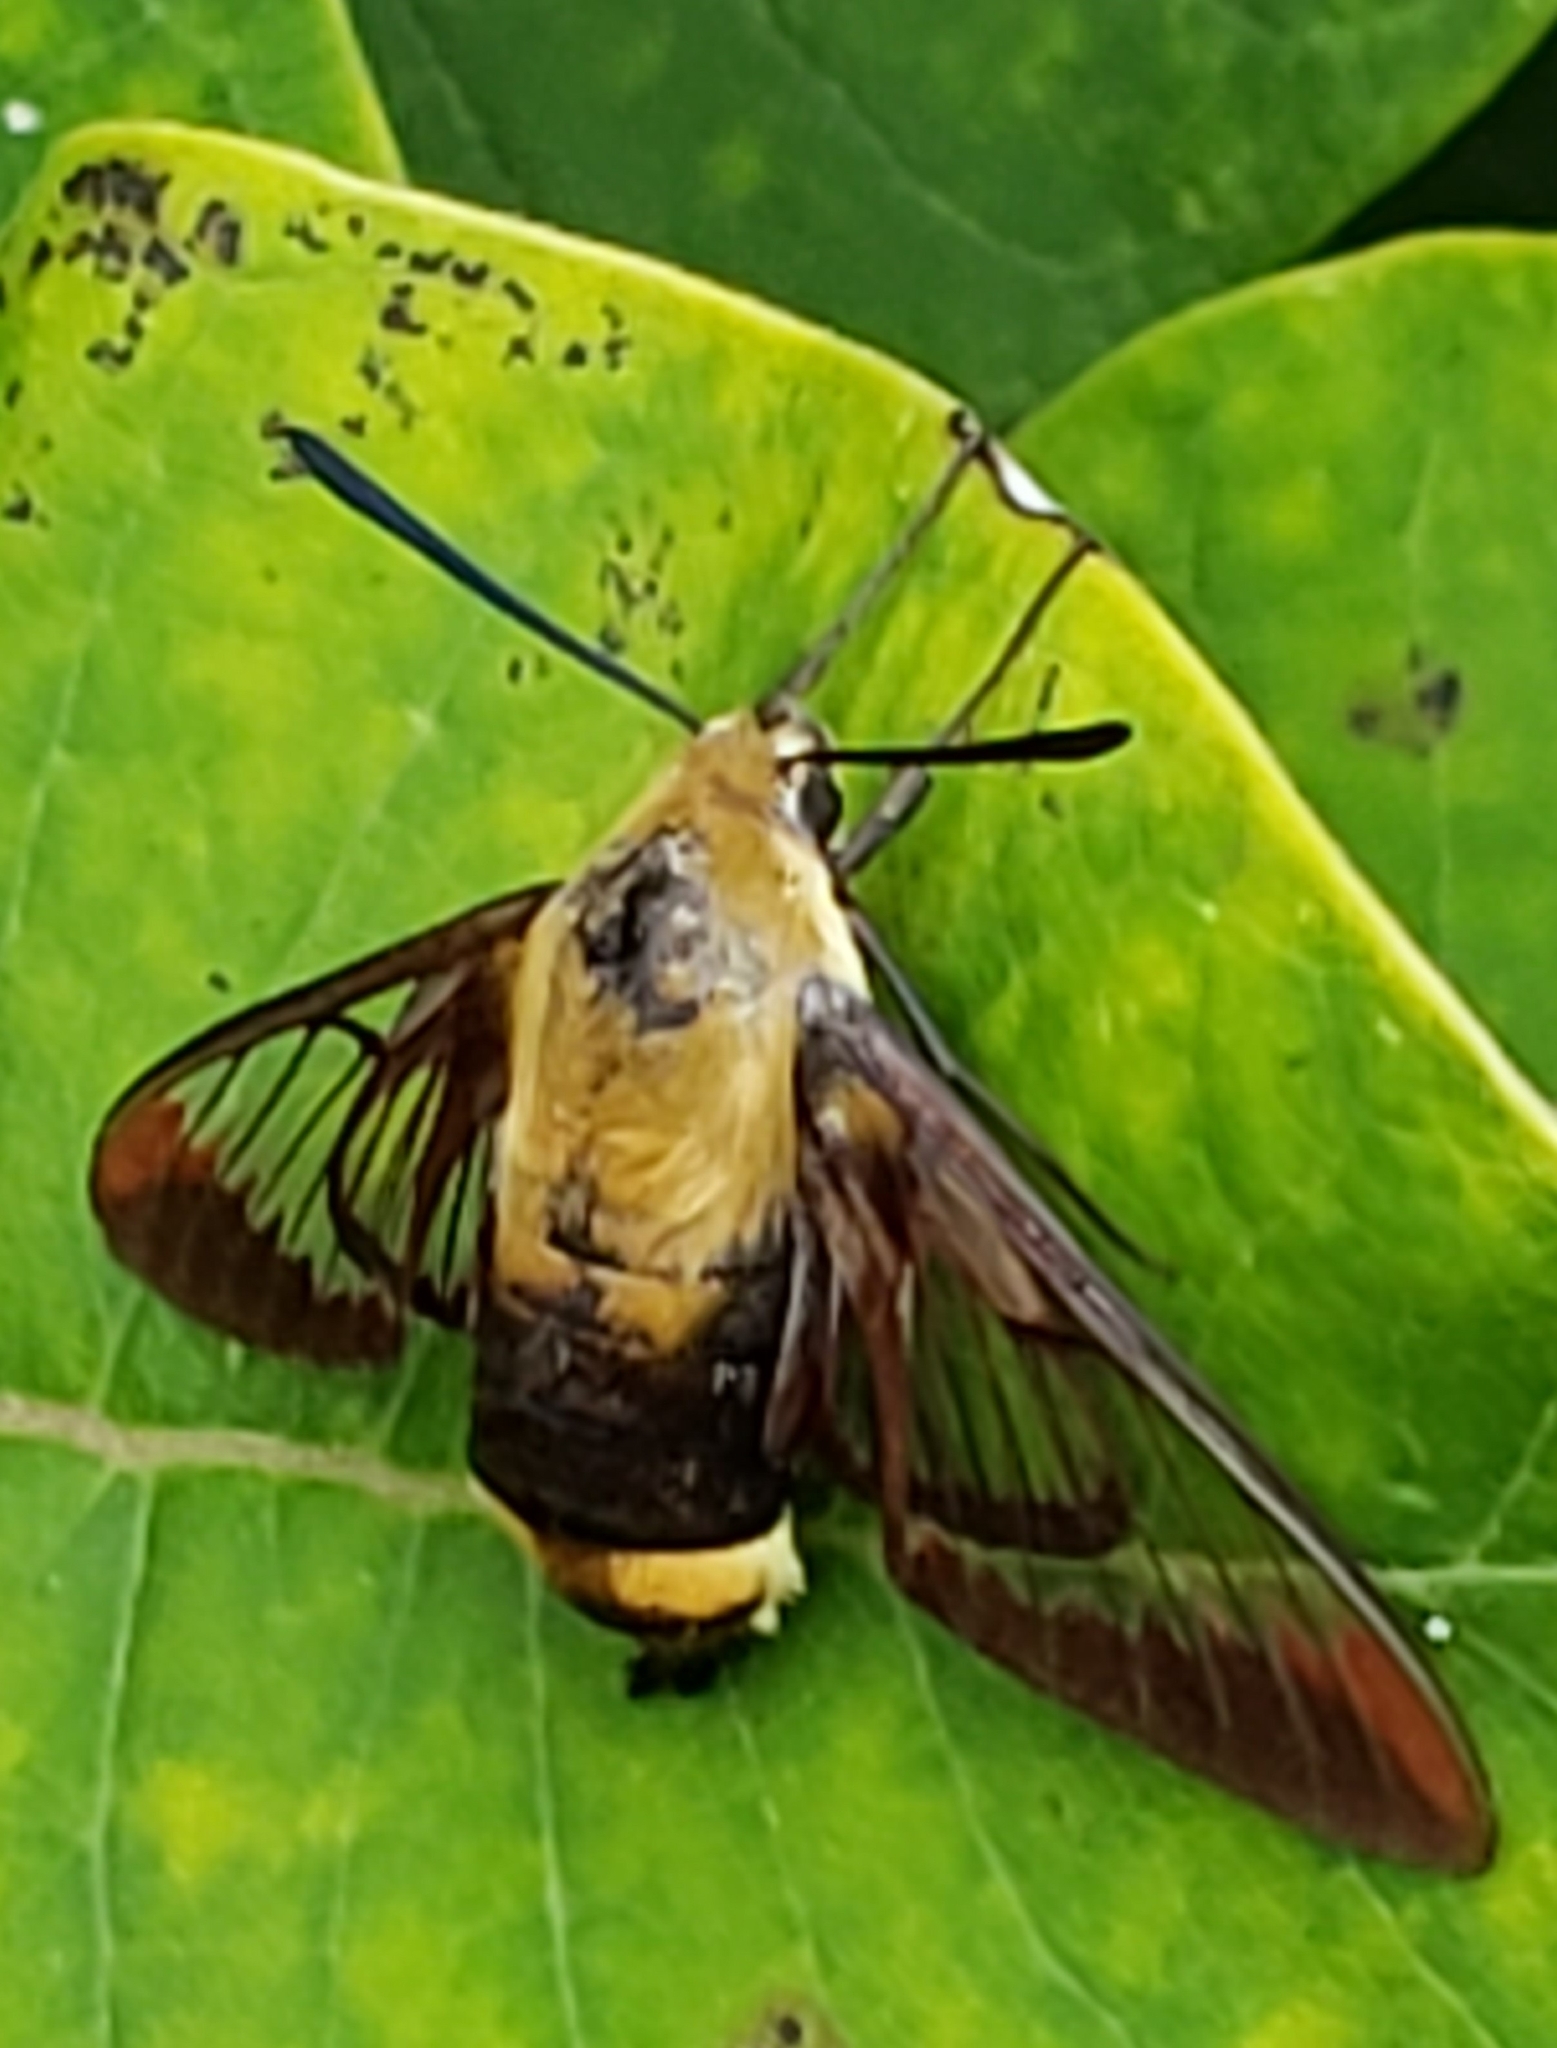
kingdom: Animalia
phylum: Arthropoda
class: Insecta
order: Lepidoptera
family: Sphingidae
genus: Hemaris
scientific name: Hemaris diffinis
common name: Bumblebee moth
